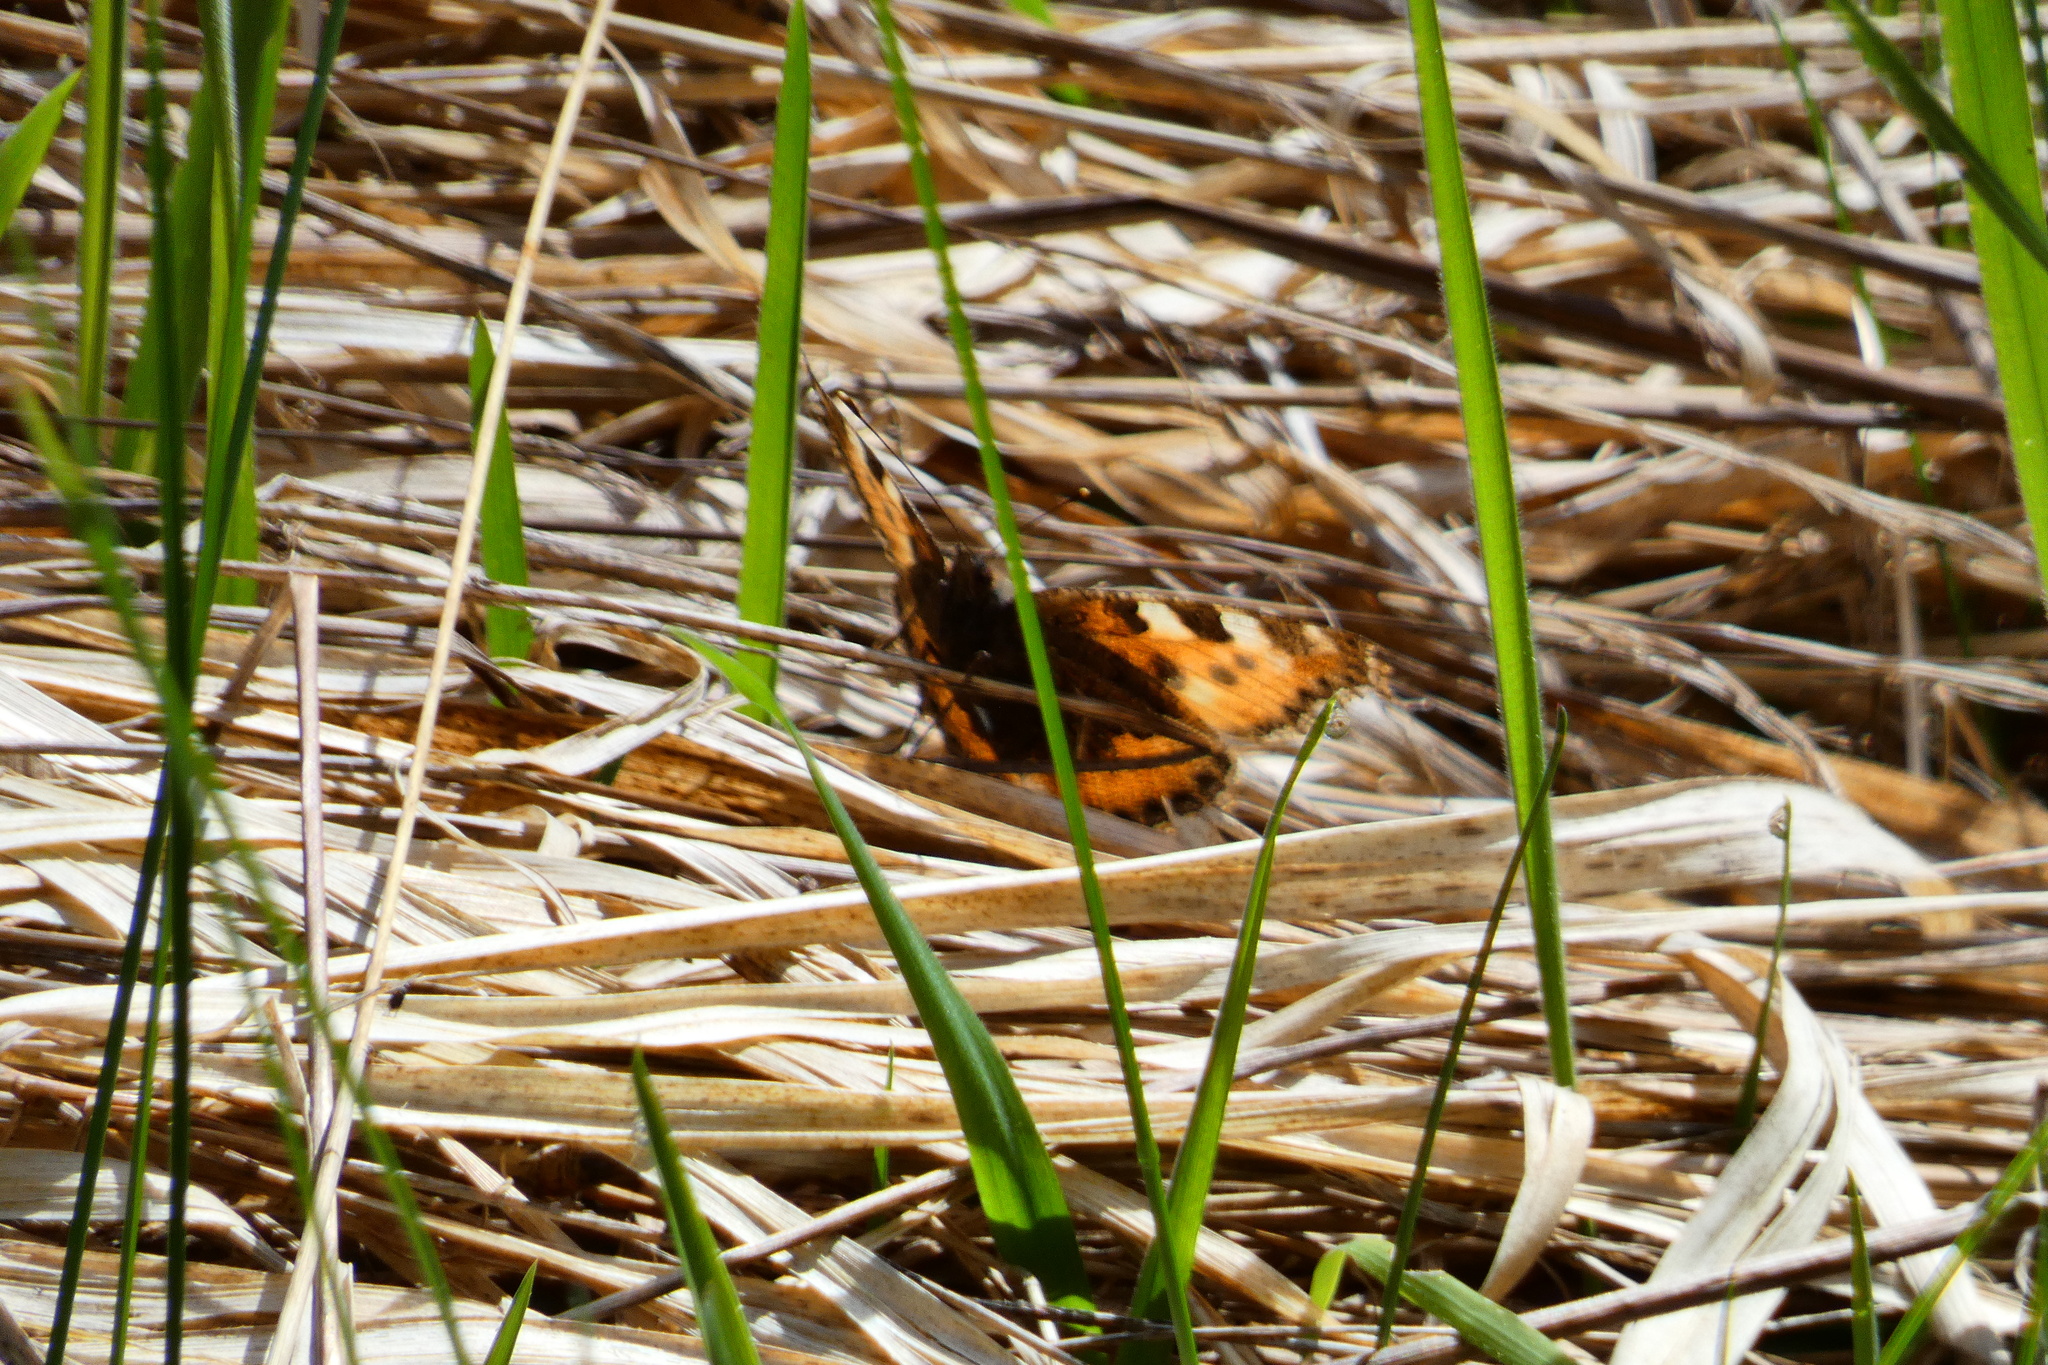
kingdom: Animalia
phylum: Arthropoda
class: Insecta
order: Lepidoptera
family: Nymphalidae
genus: Aglais
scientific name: Aglais urticae
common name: Small tortoiseshell
